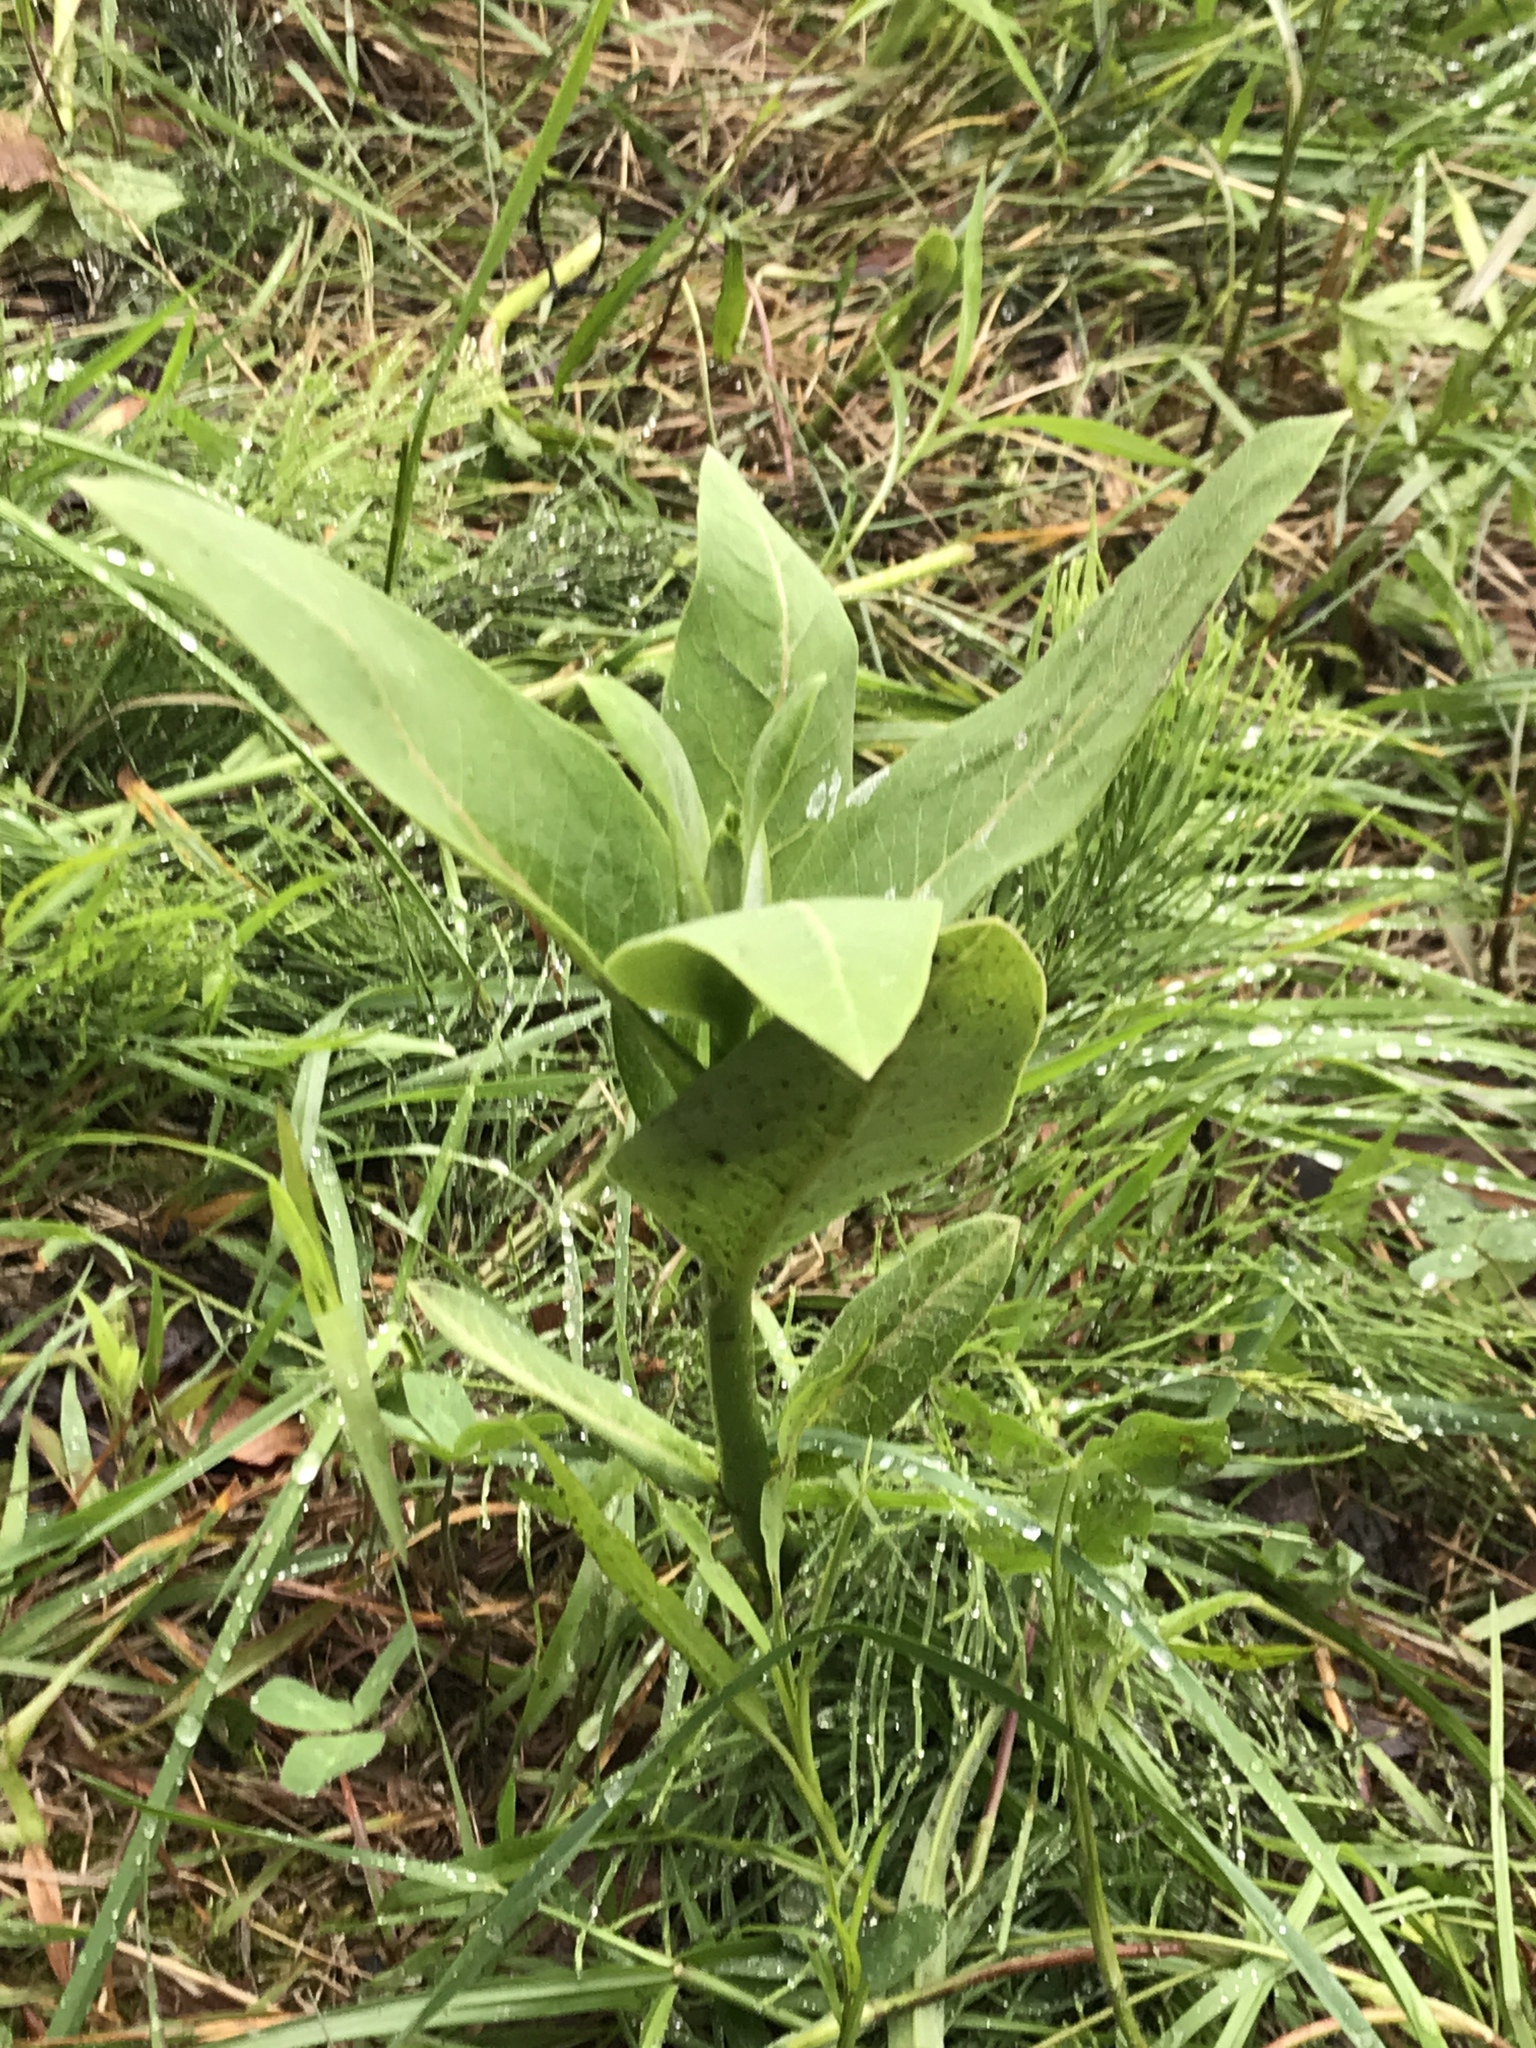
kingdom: Plantae
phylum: Tracheophyta
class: Magnoliopsida
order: Gentianales
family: Apocynaceae
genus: Asclepias
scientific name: Asclepias syriaca
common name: Common milkweed
